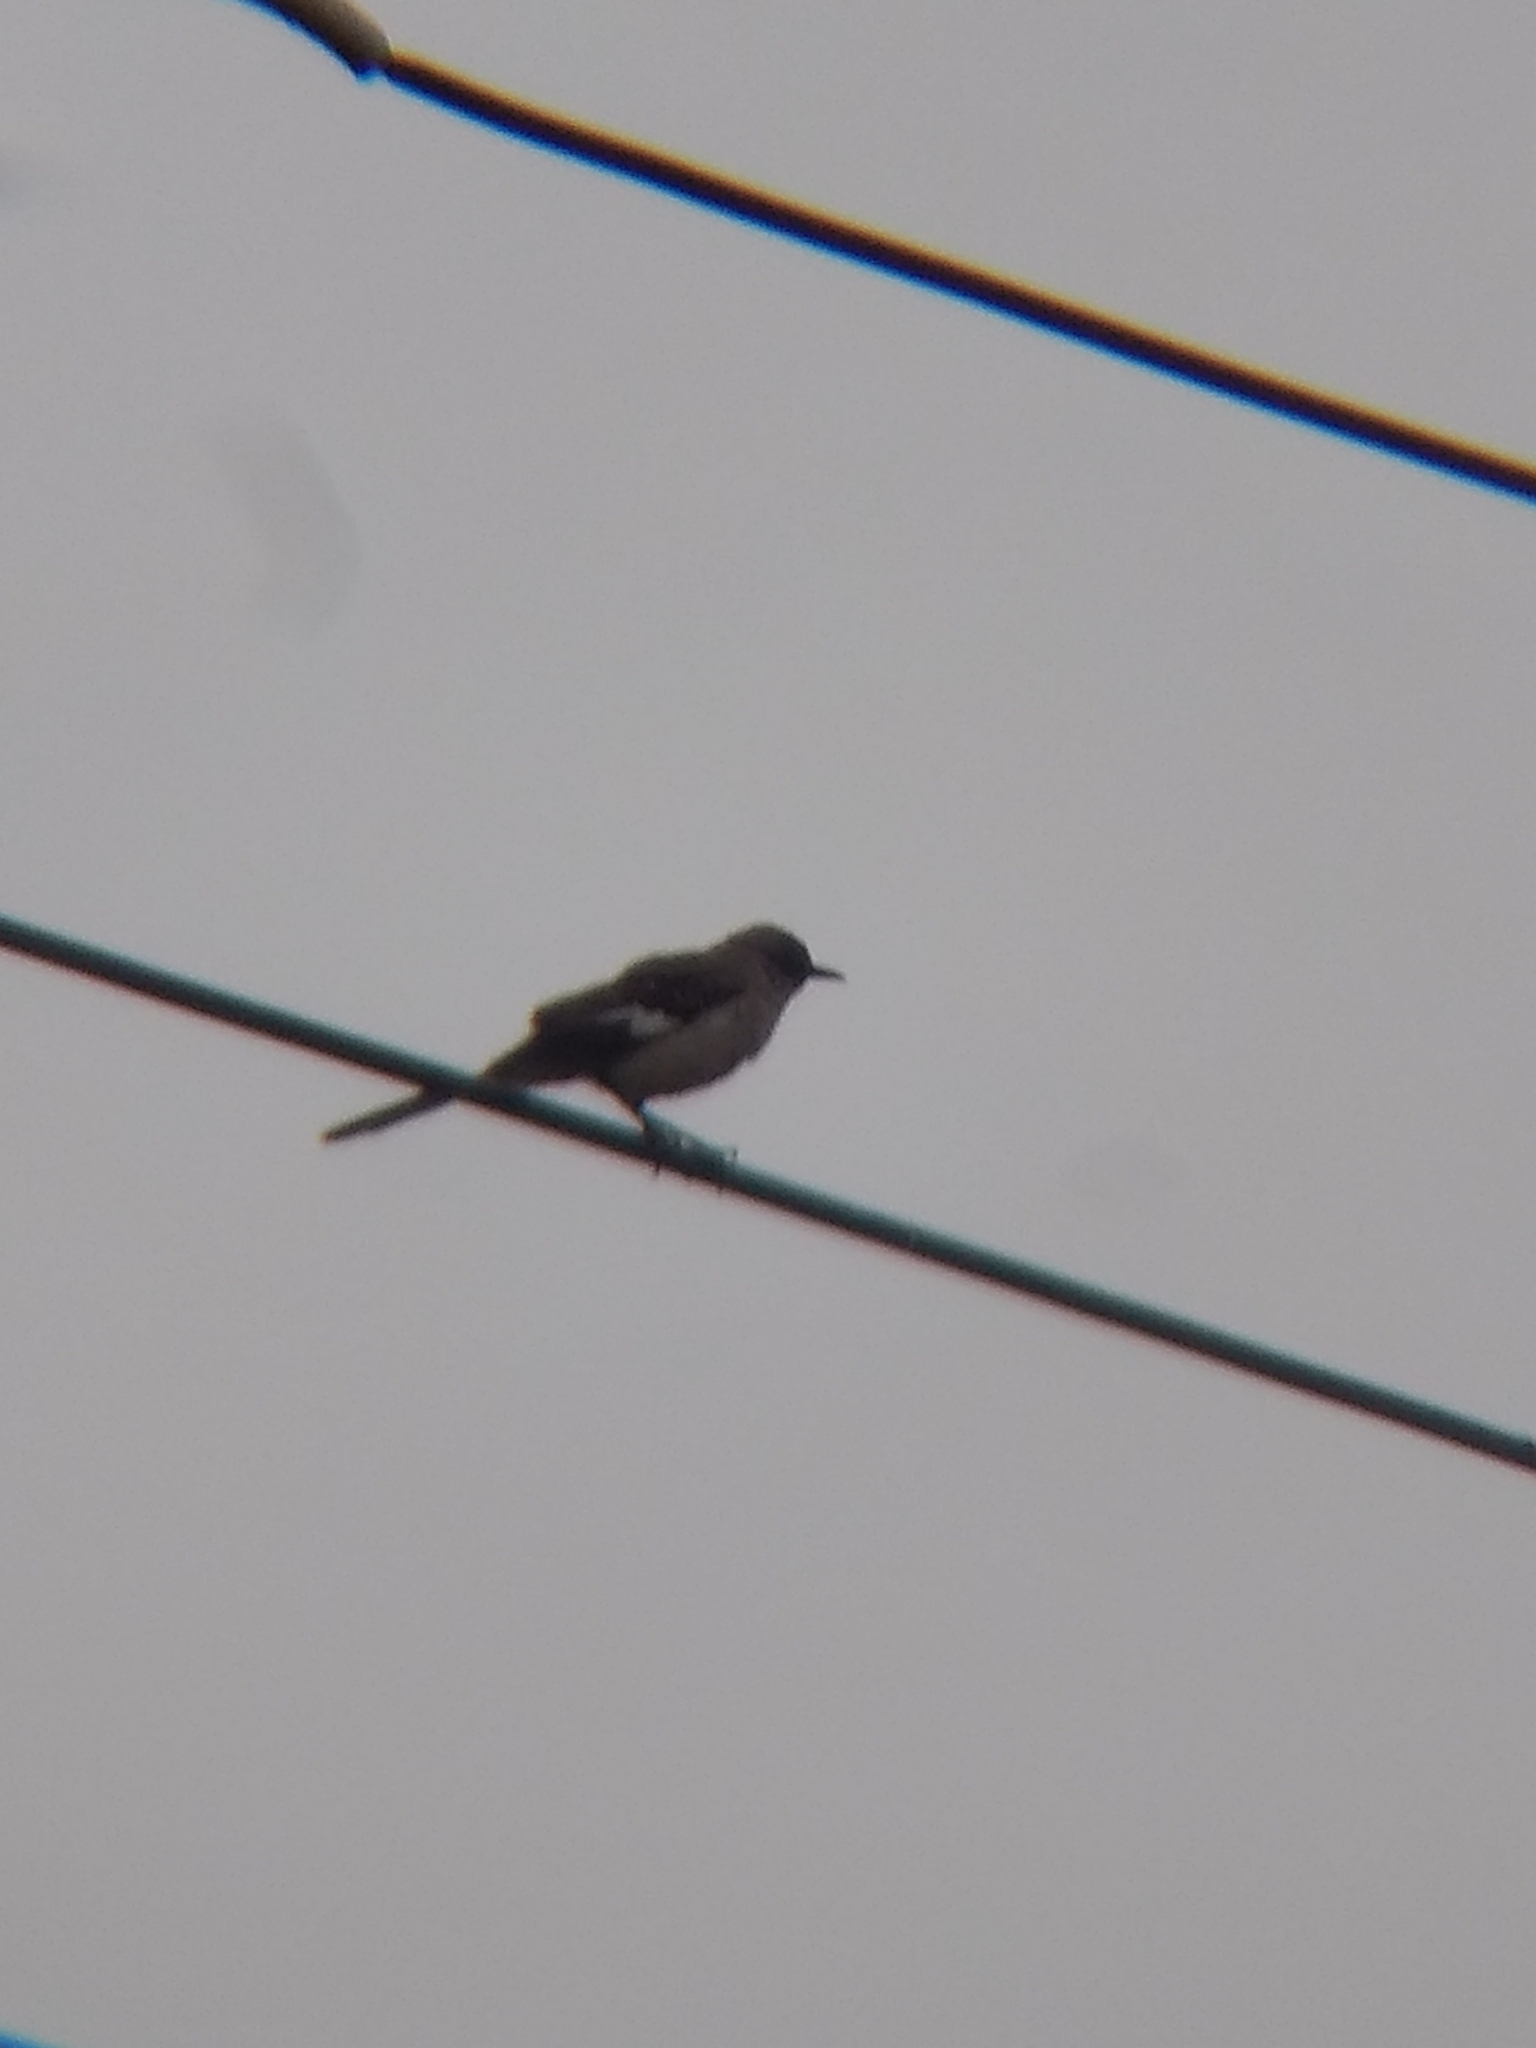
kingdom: Animalia
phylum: Chordata
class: Aves
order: Passeriformes
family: Mimidae
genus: Mimus
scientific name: Mimus polyglottos
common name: Northern mockingbird
